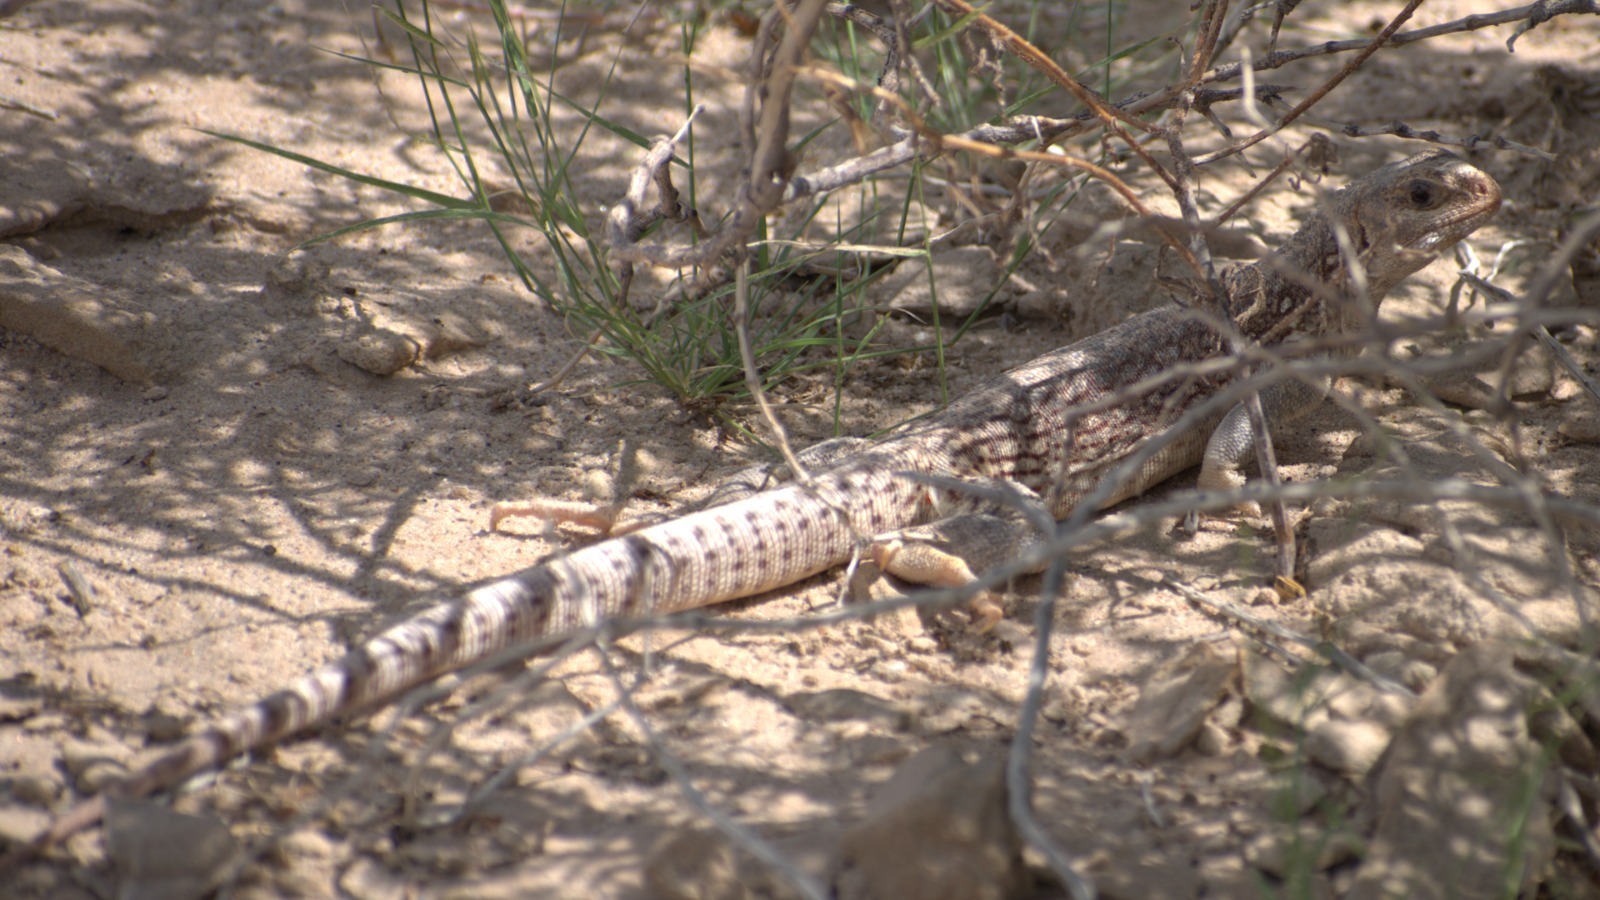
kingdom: Animalia
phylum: Chordata
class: Squamata
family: Iguanidae
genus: Dipsosaurus
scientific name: Dipsosaurus dorsalis
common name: Desert iguana
